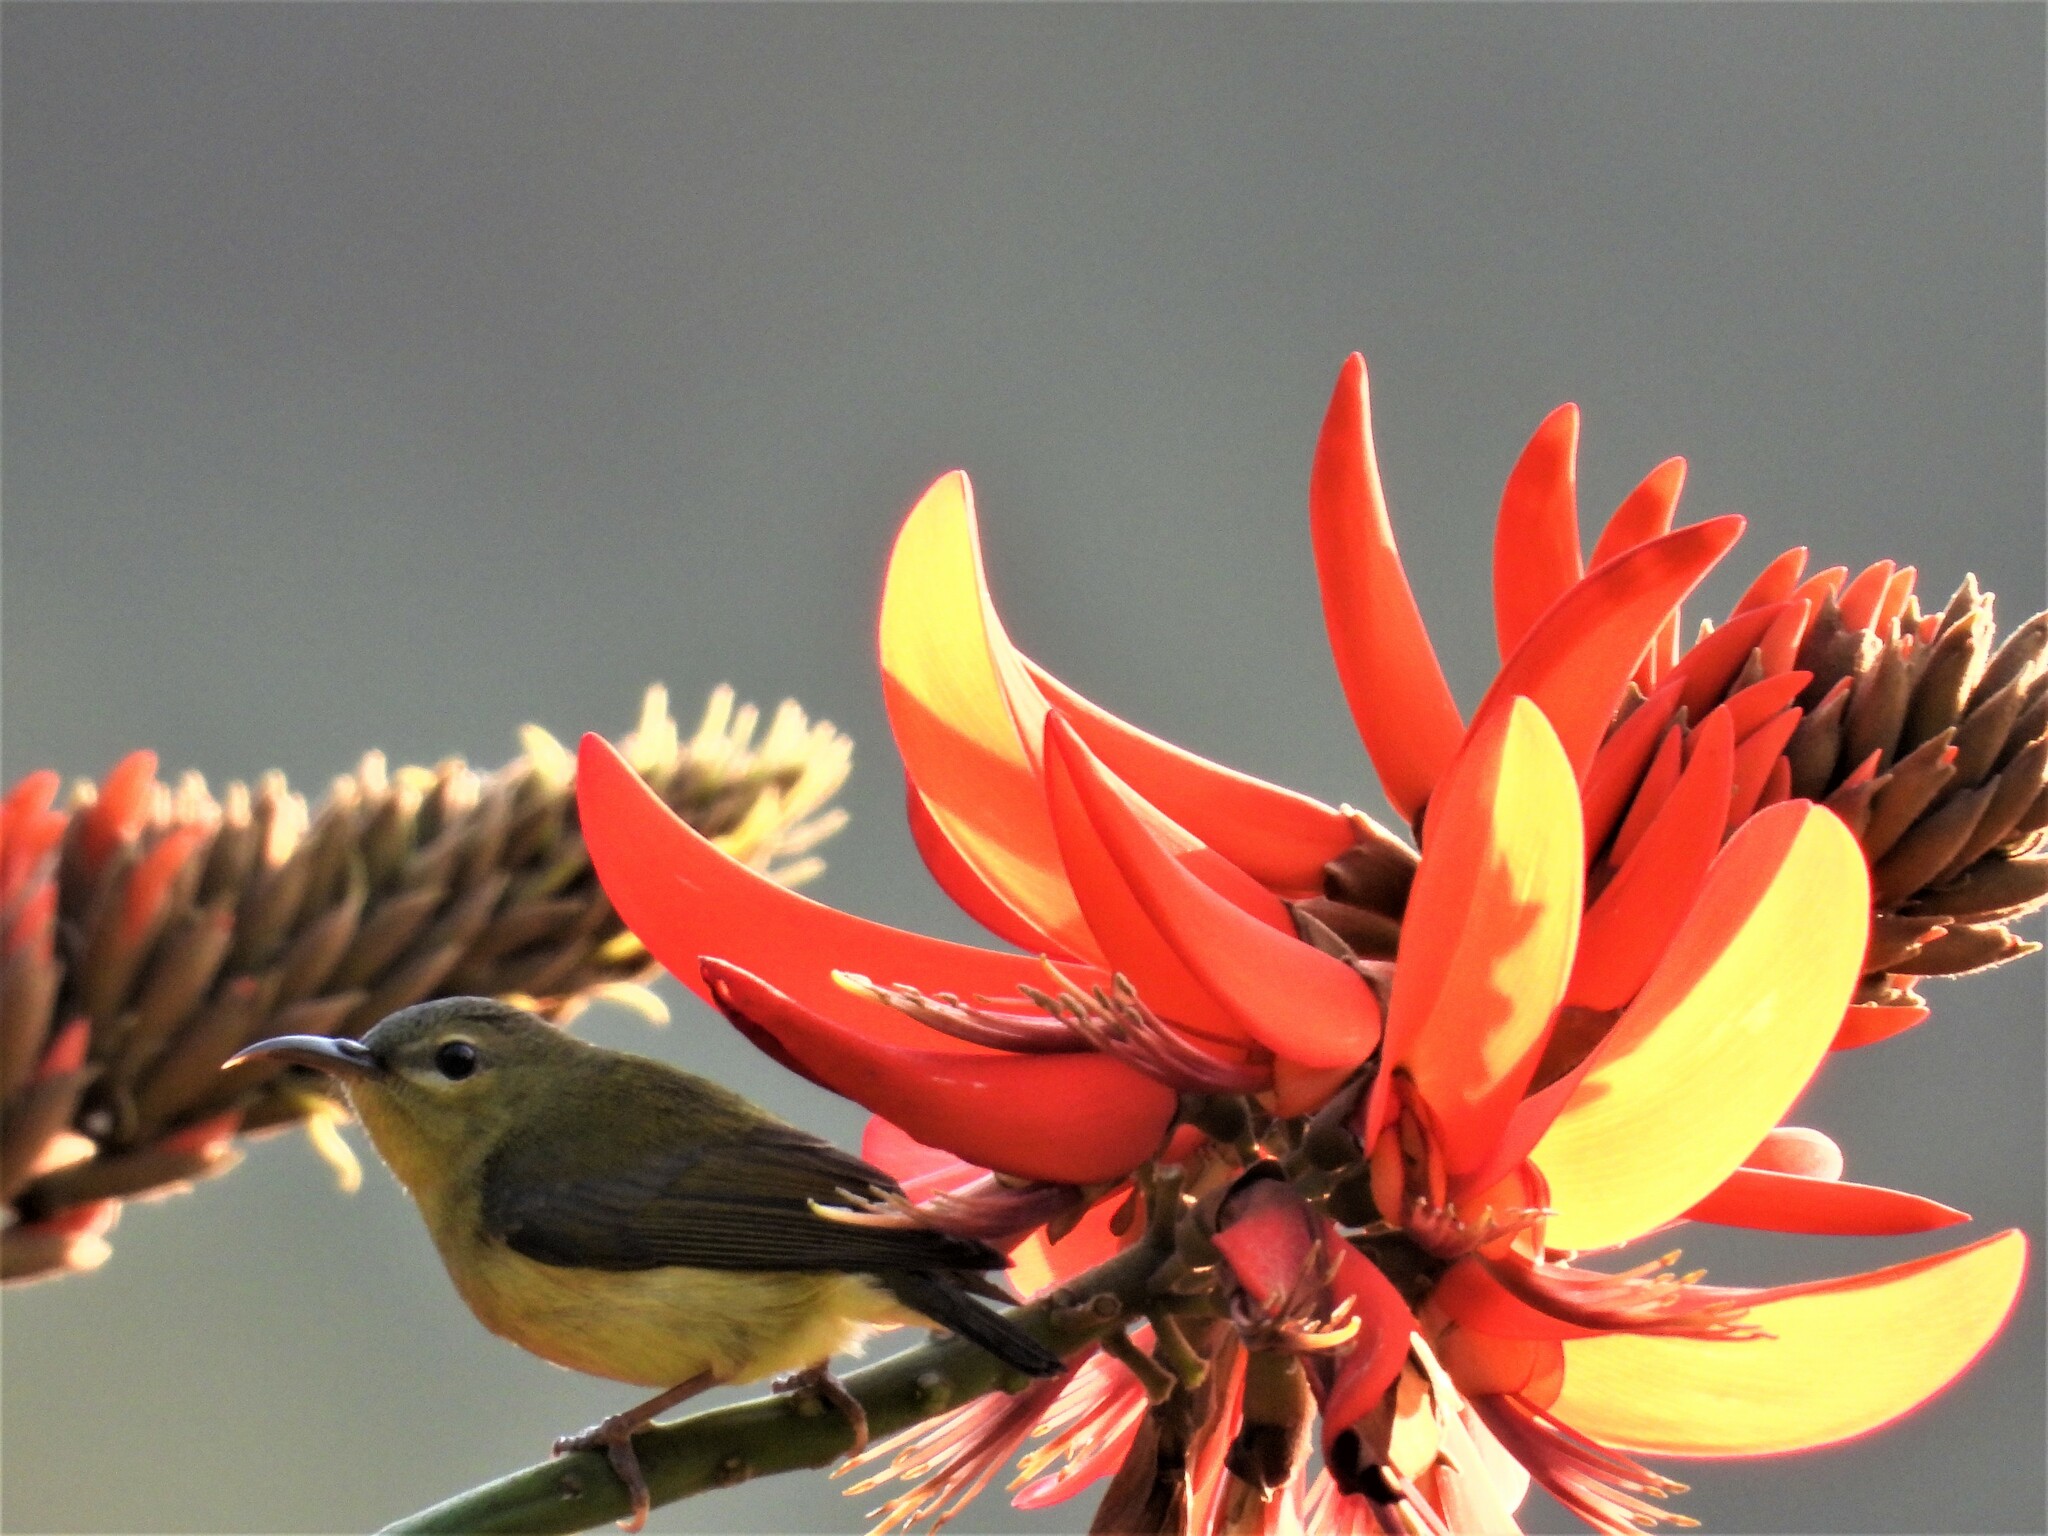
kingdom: Animalia
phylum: Chordata
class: Aves
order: Passeriformes
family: Nectariniidae
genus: Aethopyga
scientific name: Aethopyga christinae
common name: Fork-tailed sunbird
